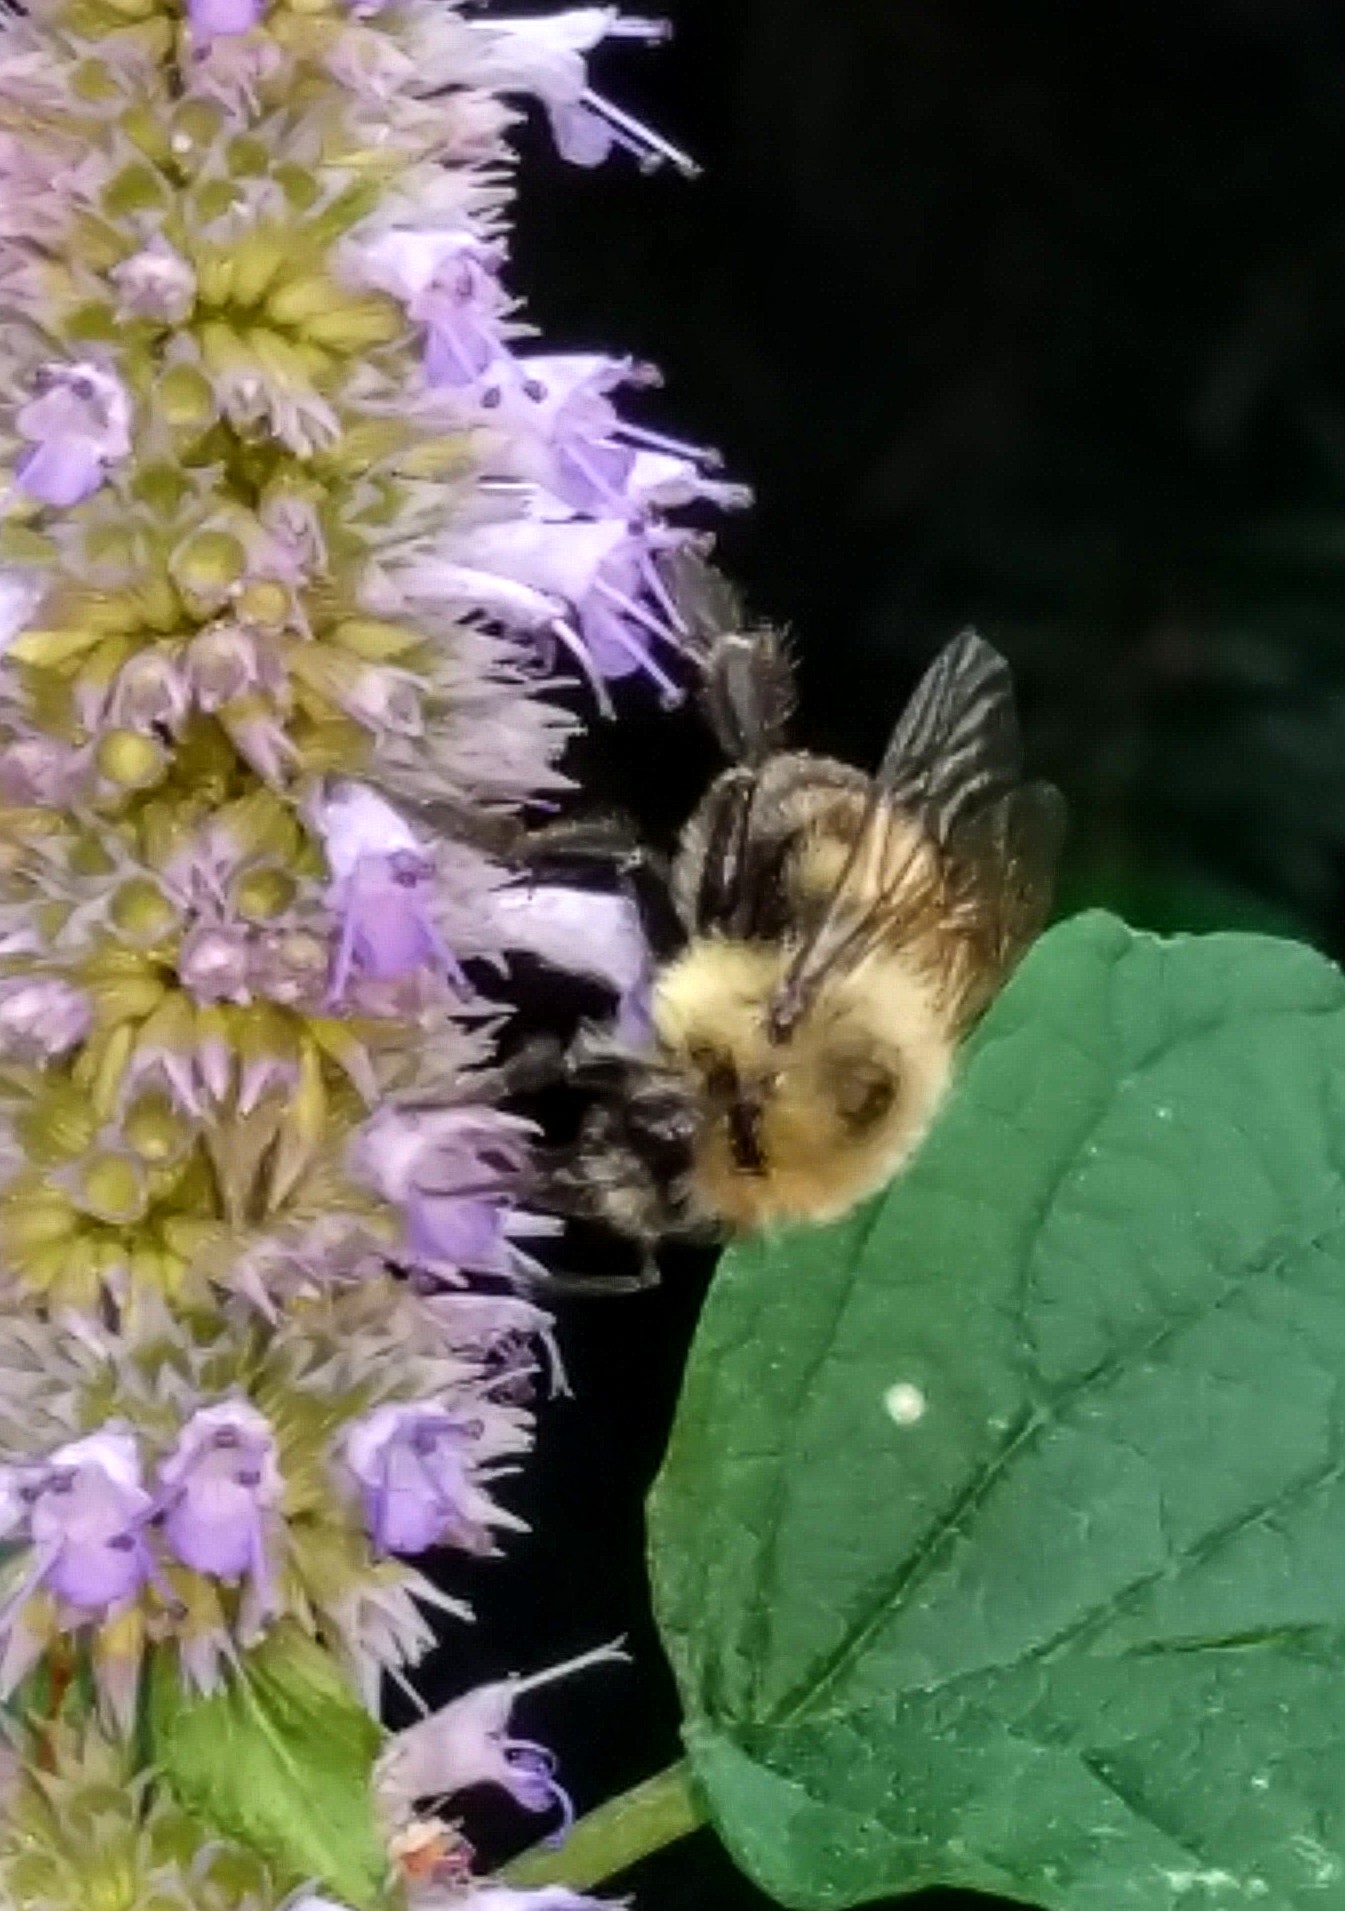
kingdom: Animalia
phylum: Arthropoda
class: Insecta
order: Hymenoptera
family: Apidae
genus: Bombus
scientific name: Bombus bimaculatus
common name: Two-spotted bumble bee
